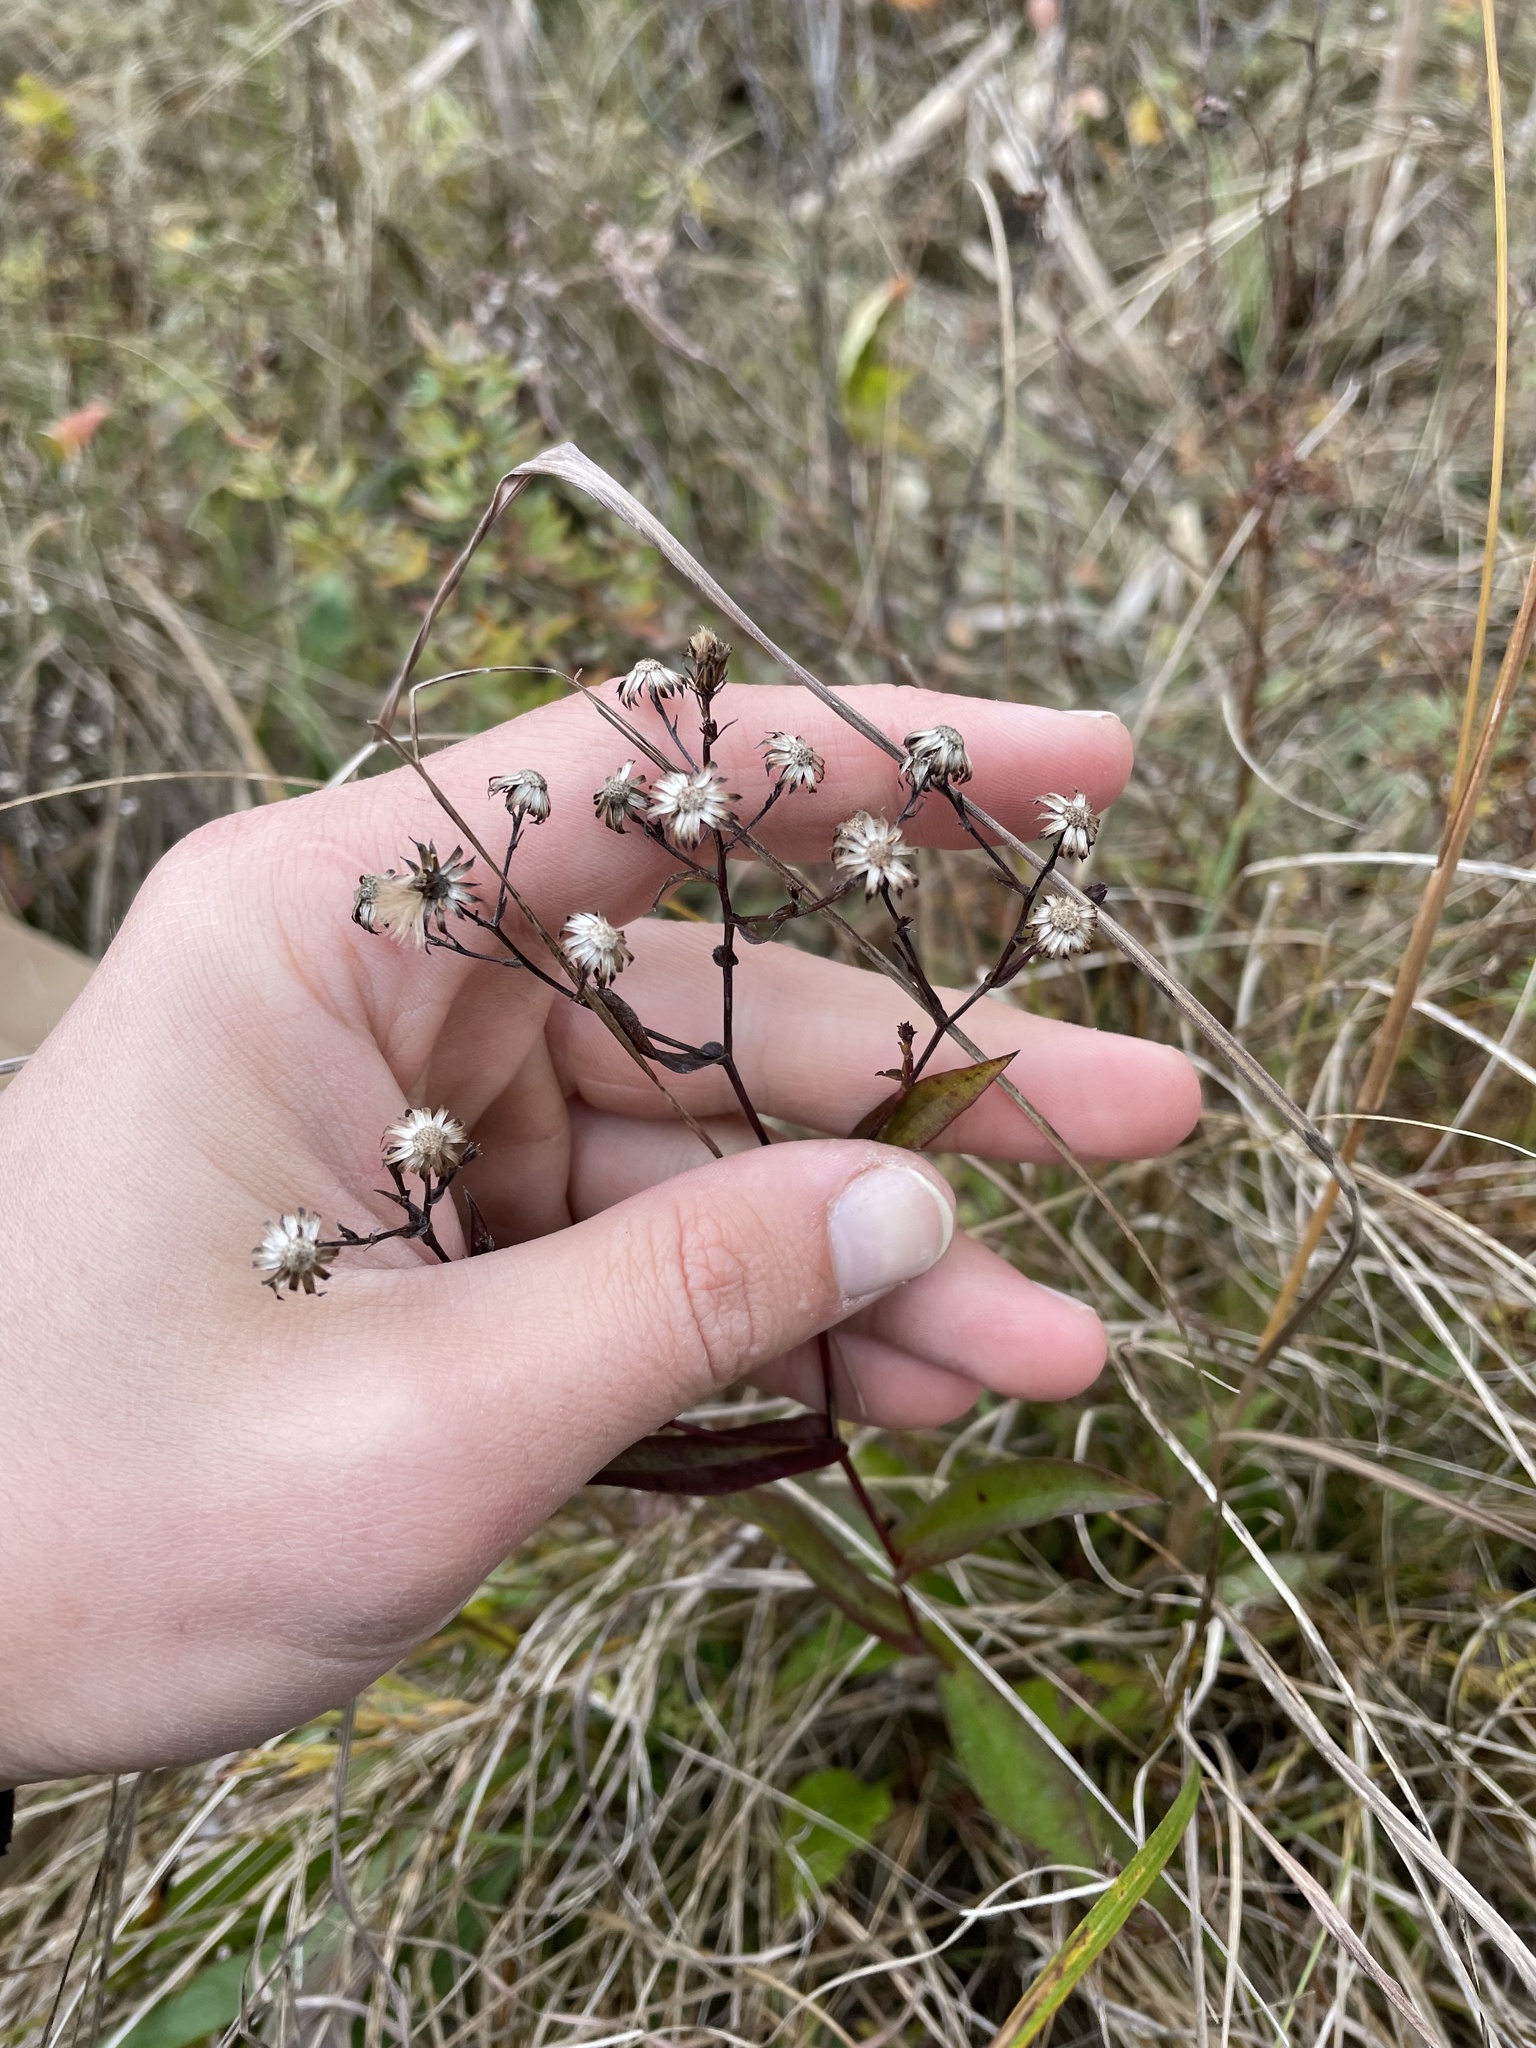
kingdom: Plantae
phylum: Tracheophyta
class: Magnoliopsida
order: Asterales
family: Asteraceae
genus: Symphyotrichum
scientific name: Symphyotrichum laeve
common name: Glaucous aster
